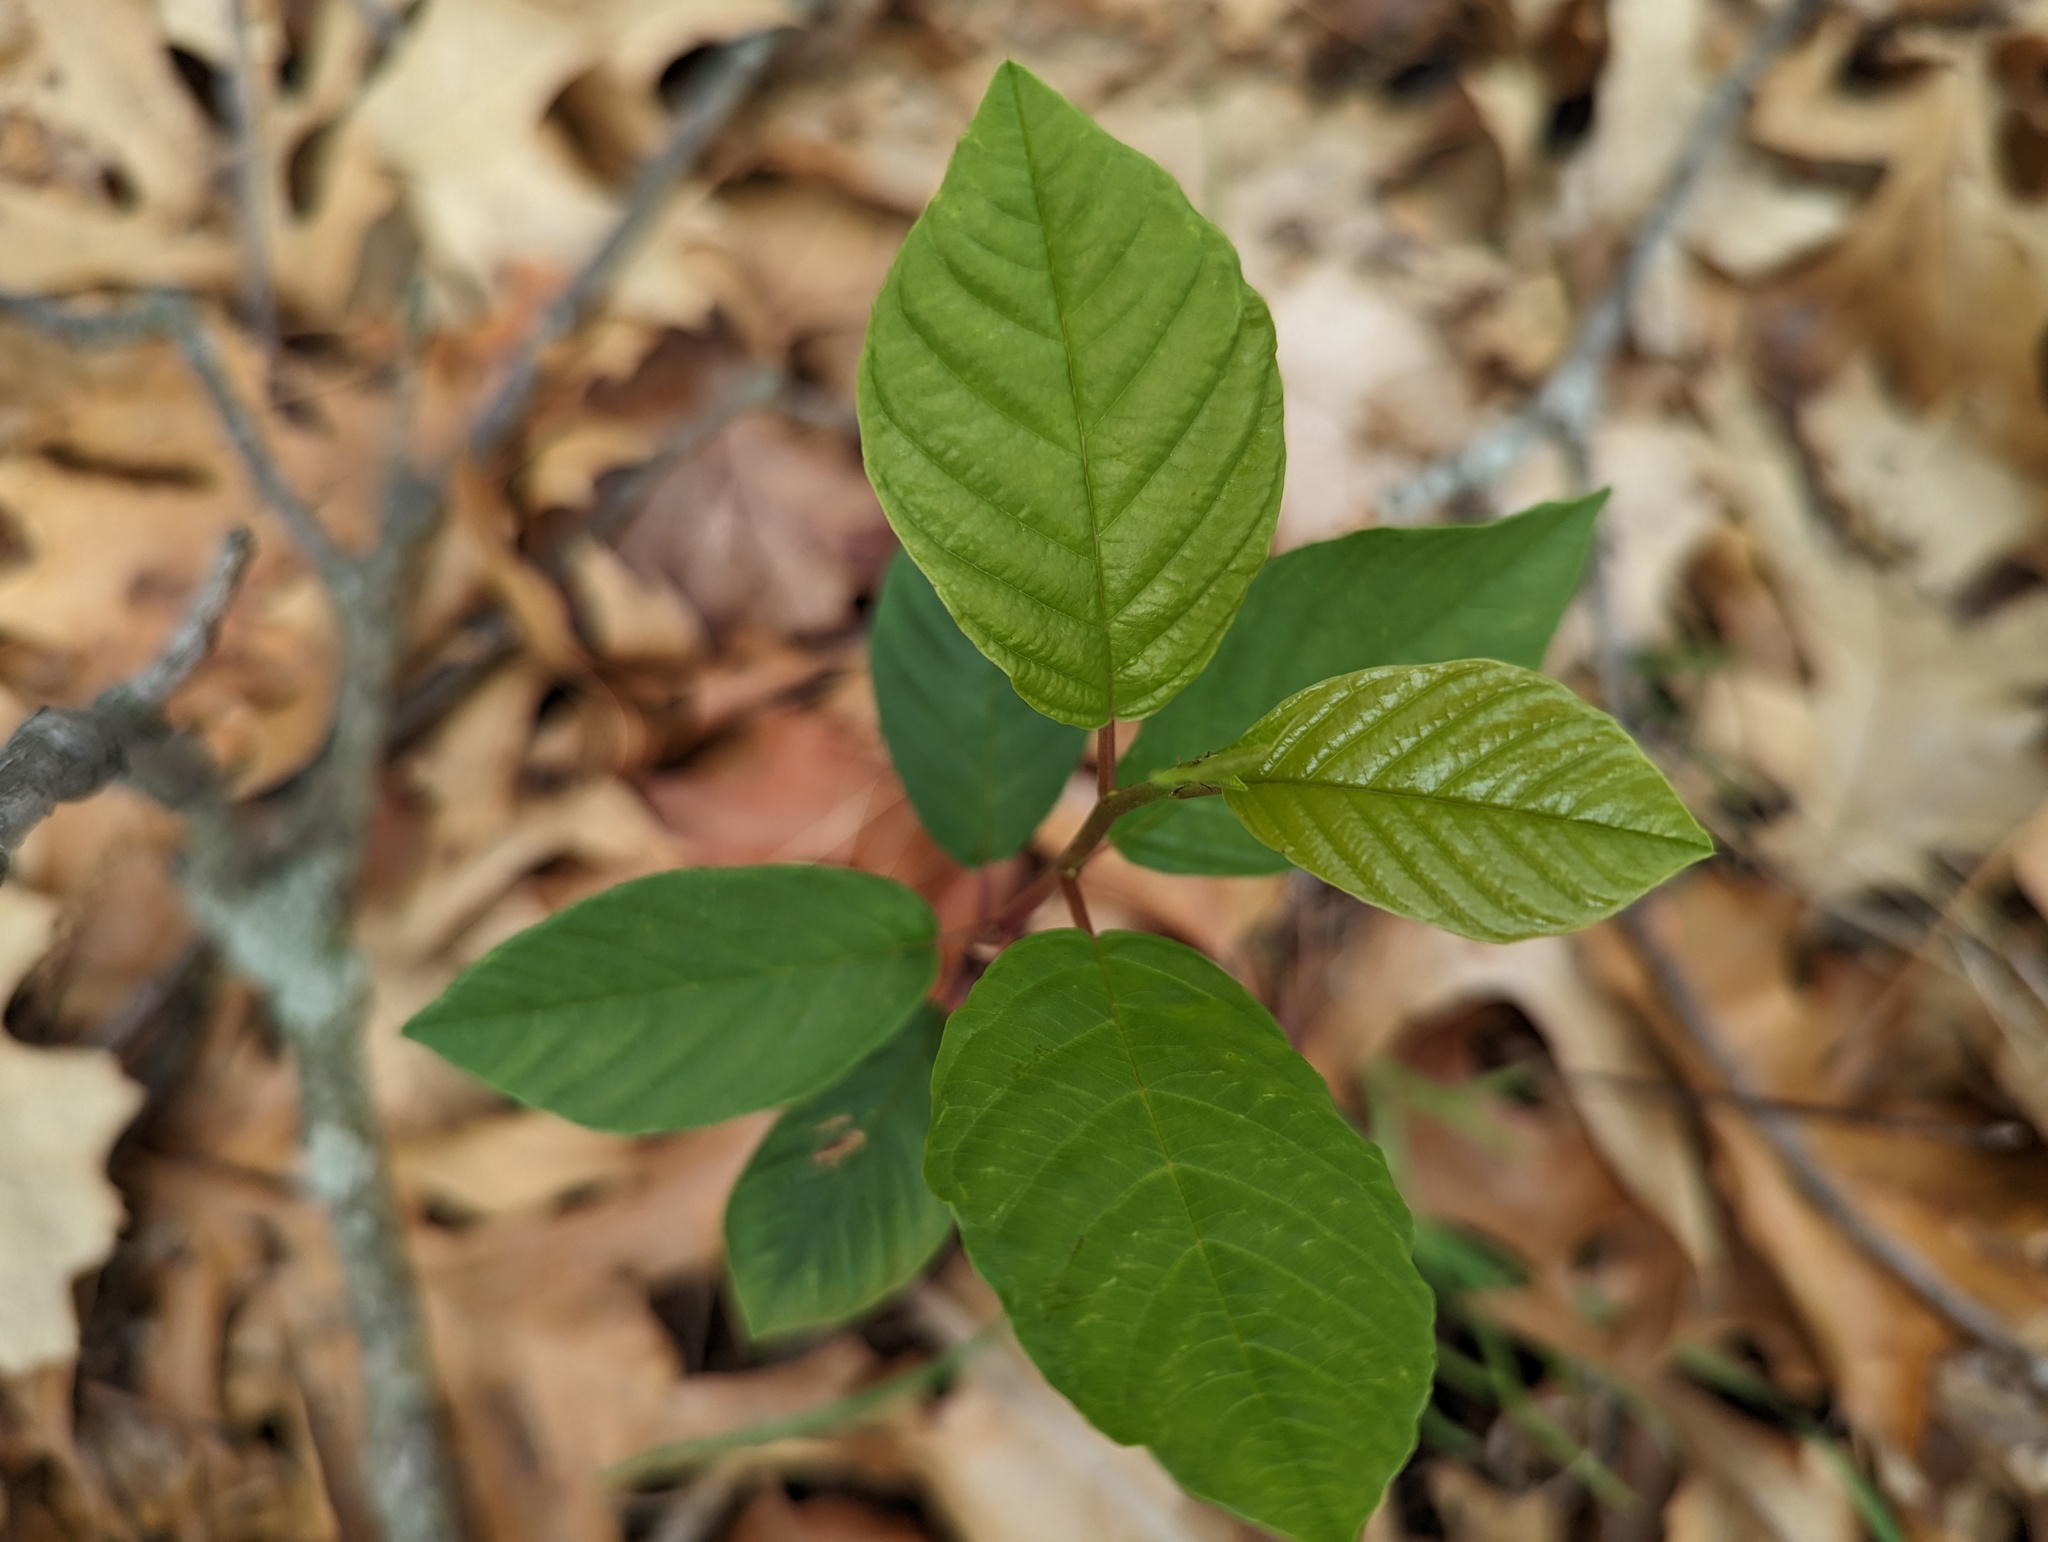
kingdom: Plantae
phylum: Tracheophyta
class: Magnoliopsida
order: Rosales
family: Rhamnaceae
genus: Frangula
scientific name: Frangula alnus
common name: Alder buckthorn
